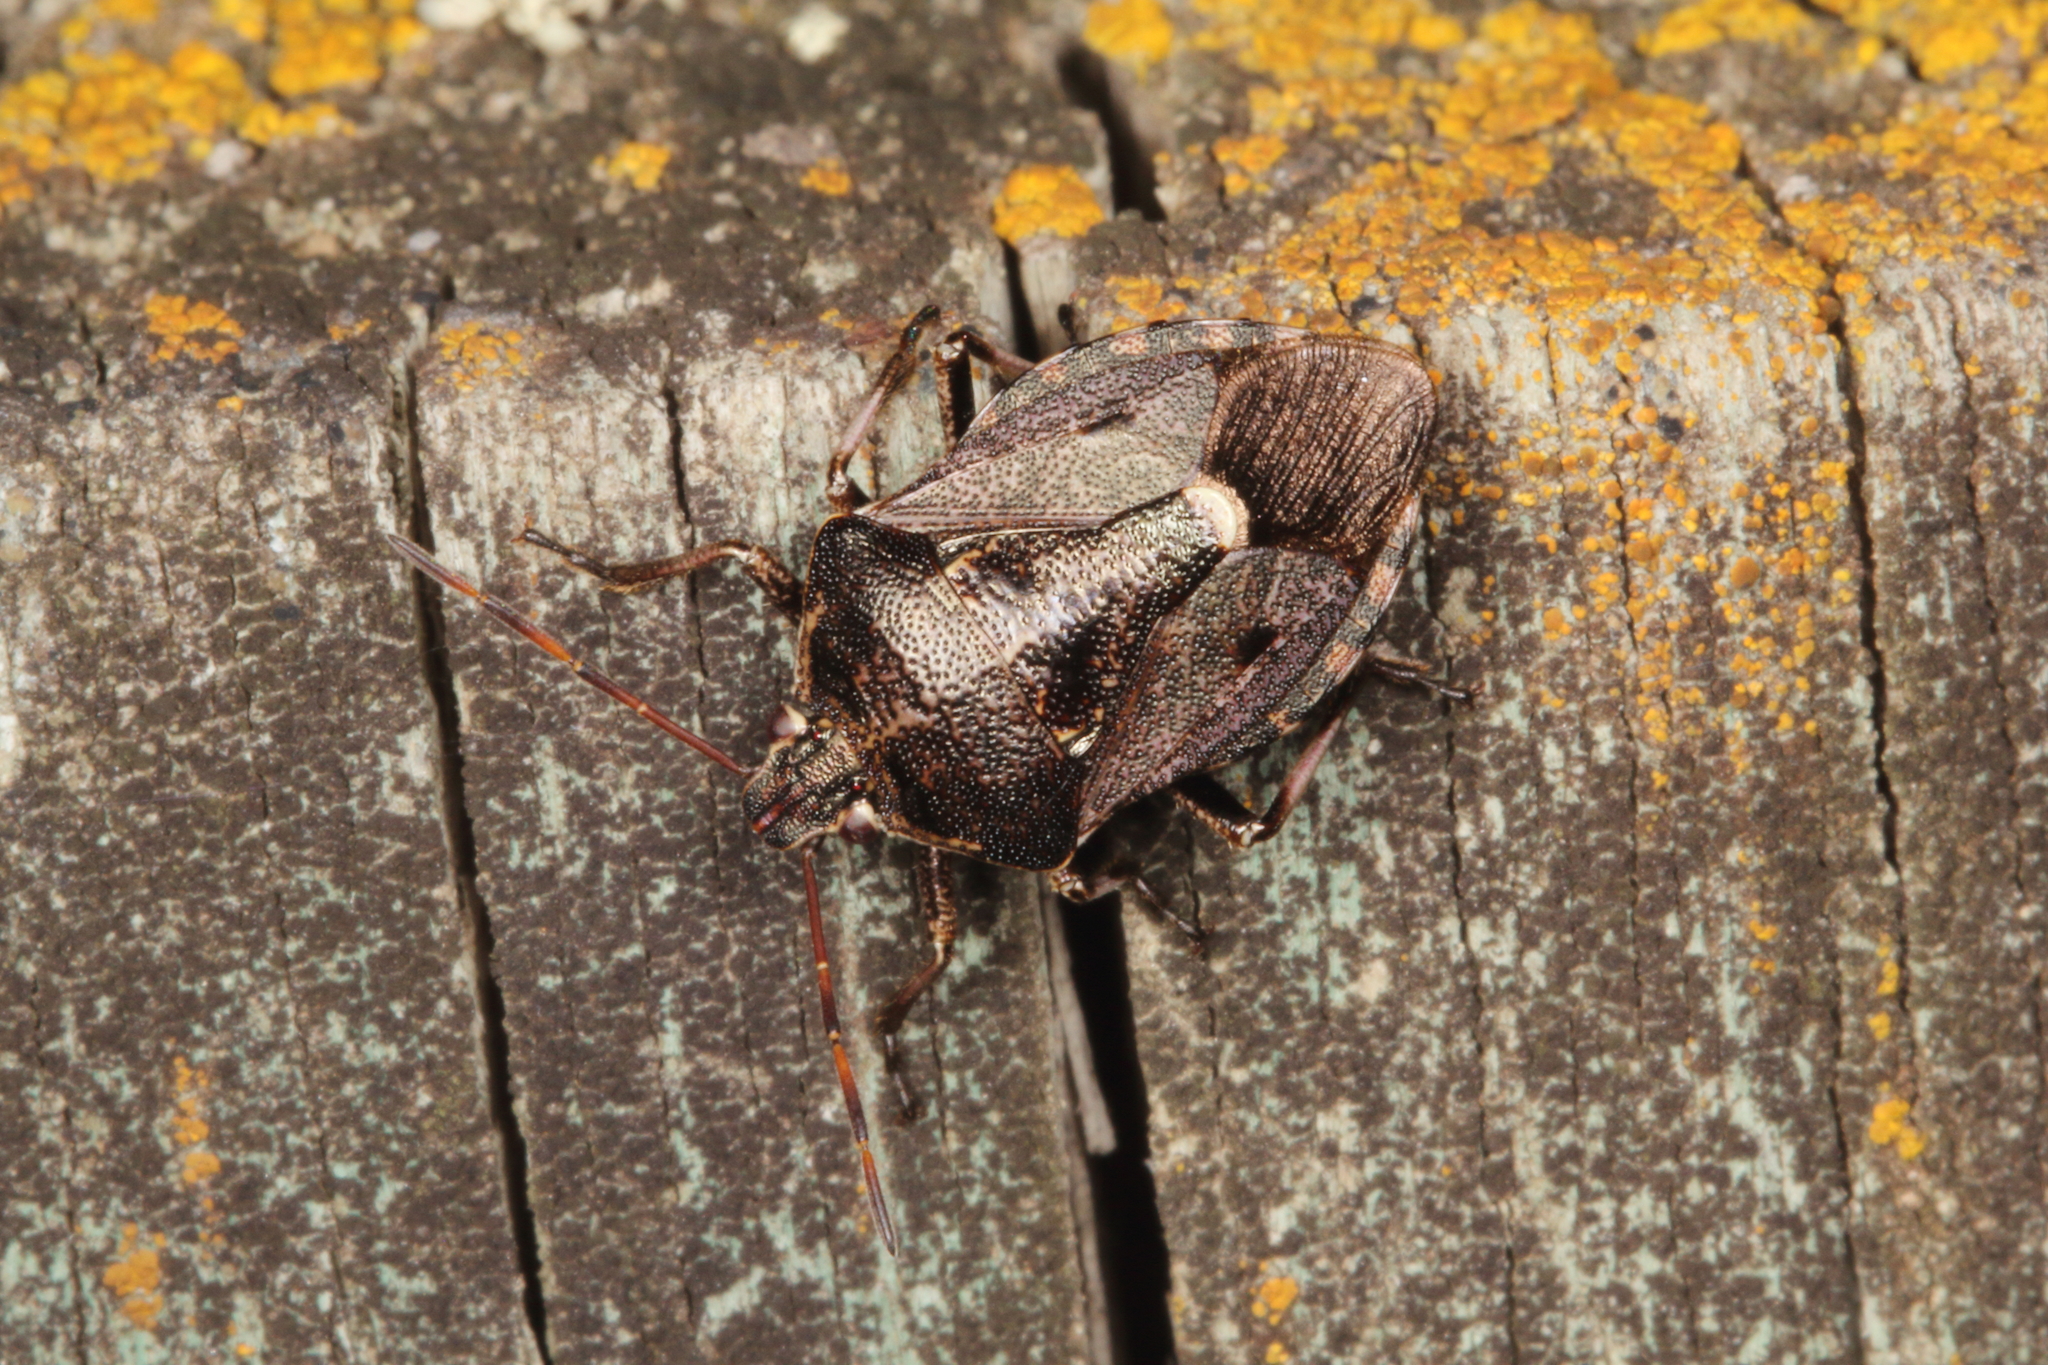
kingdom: Animalia
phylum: Arthropoda
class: Insecta
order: Hemiptera
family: Pentatomidae
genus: Cermatulus
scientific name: Cermatulus nasalis
